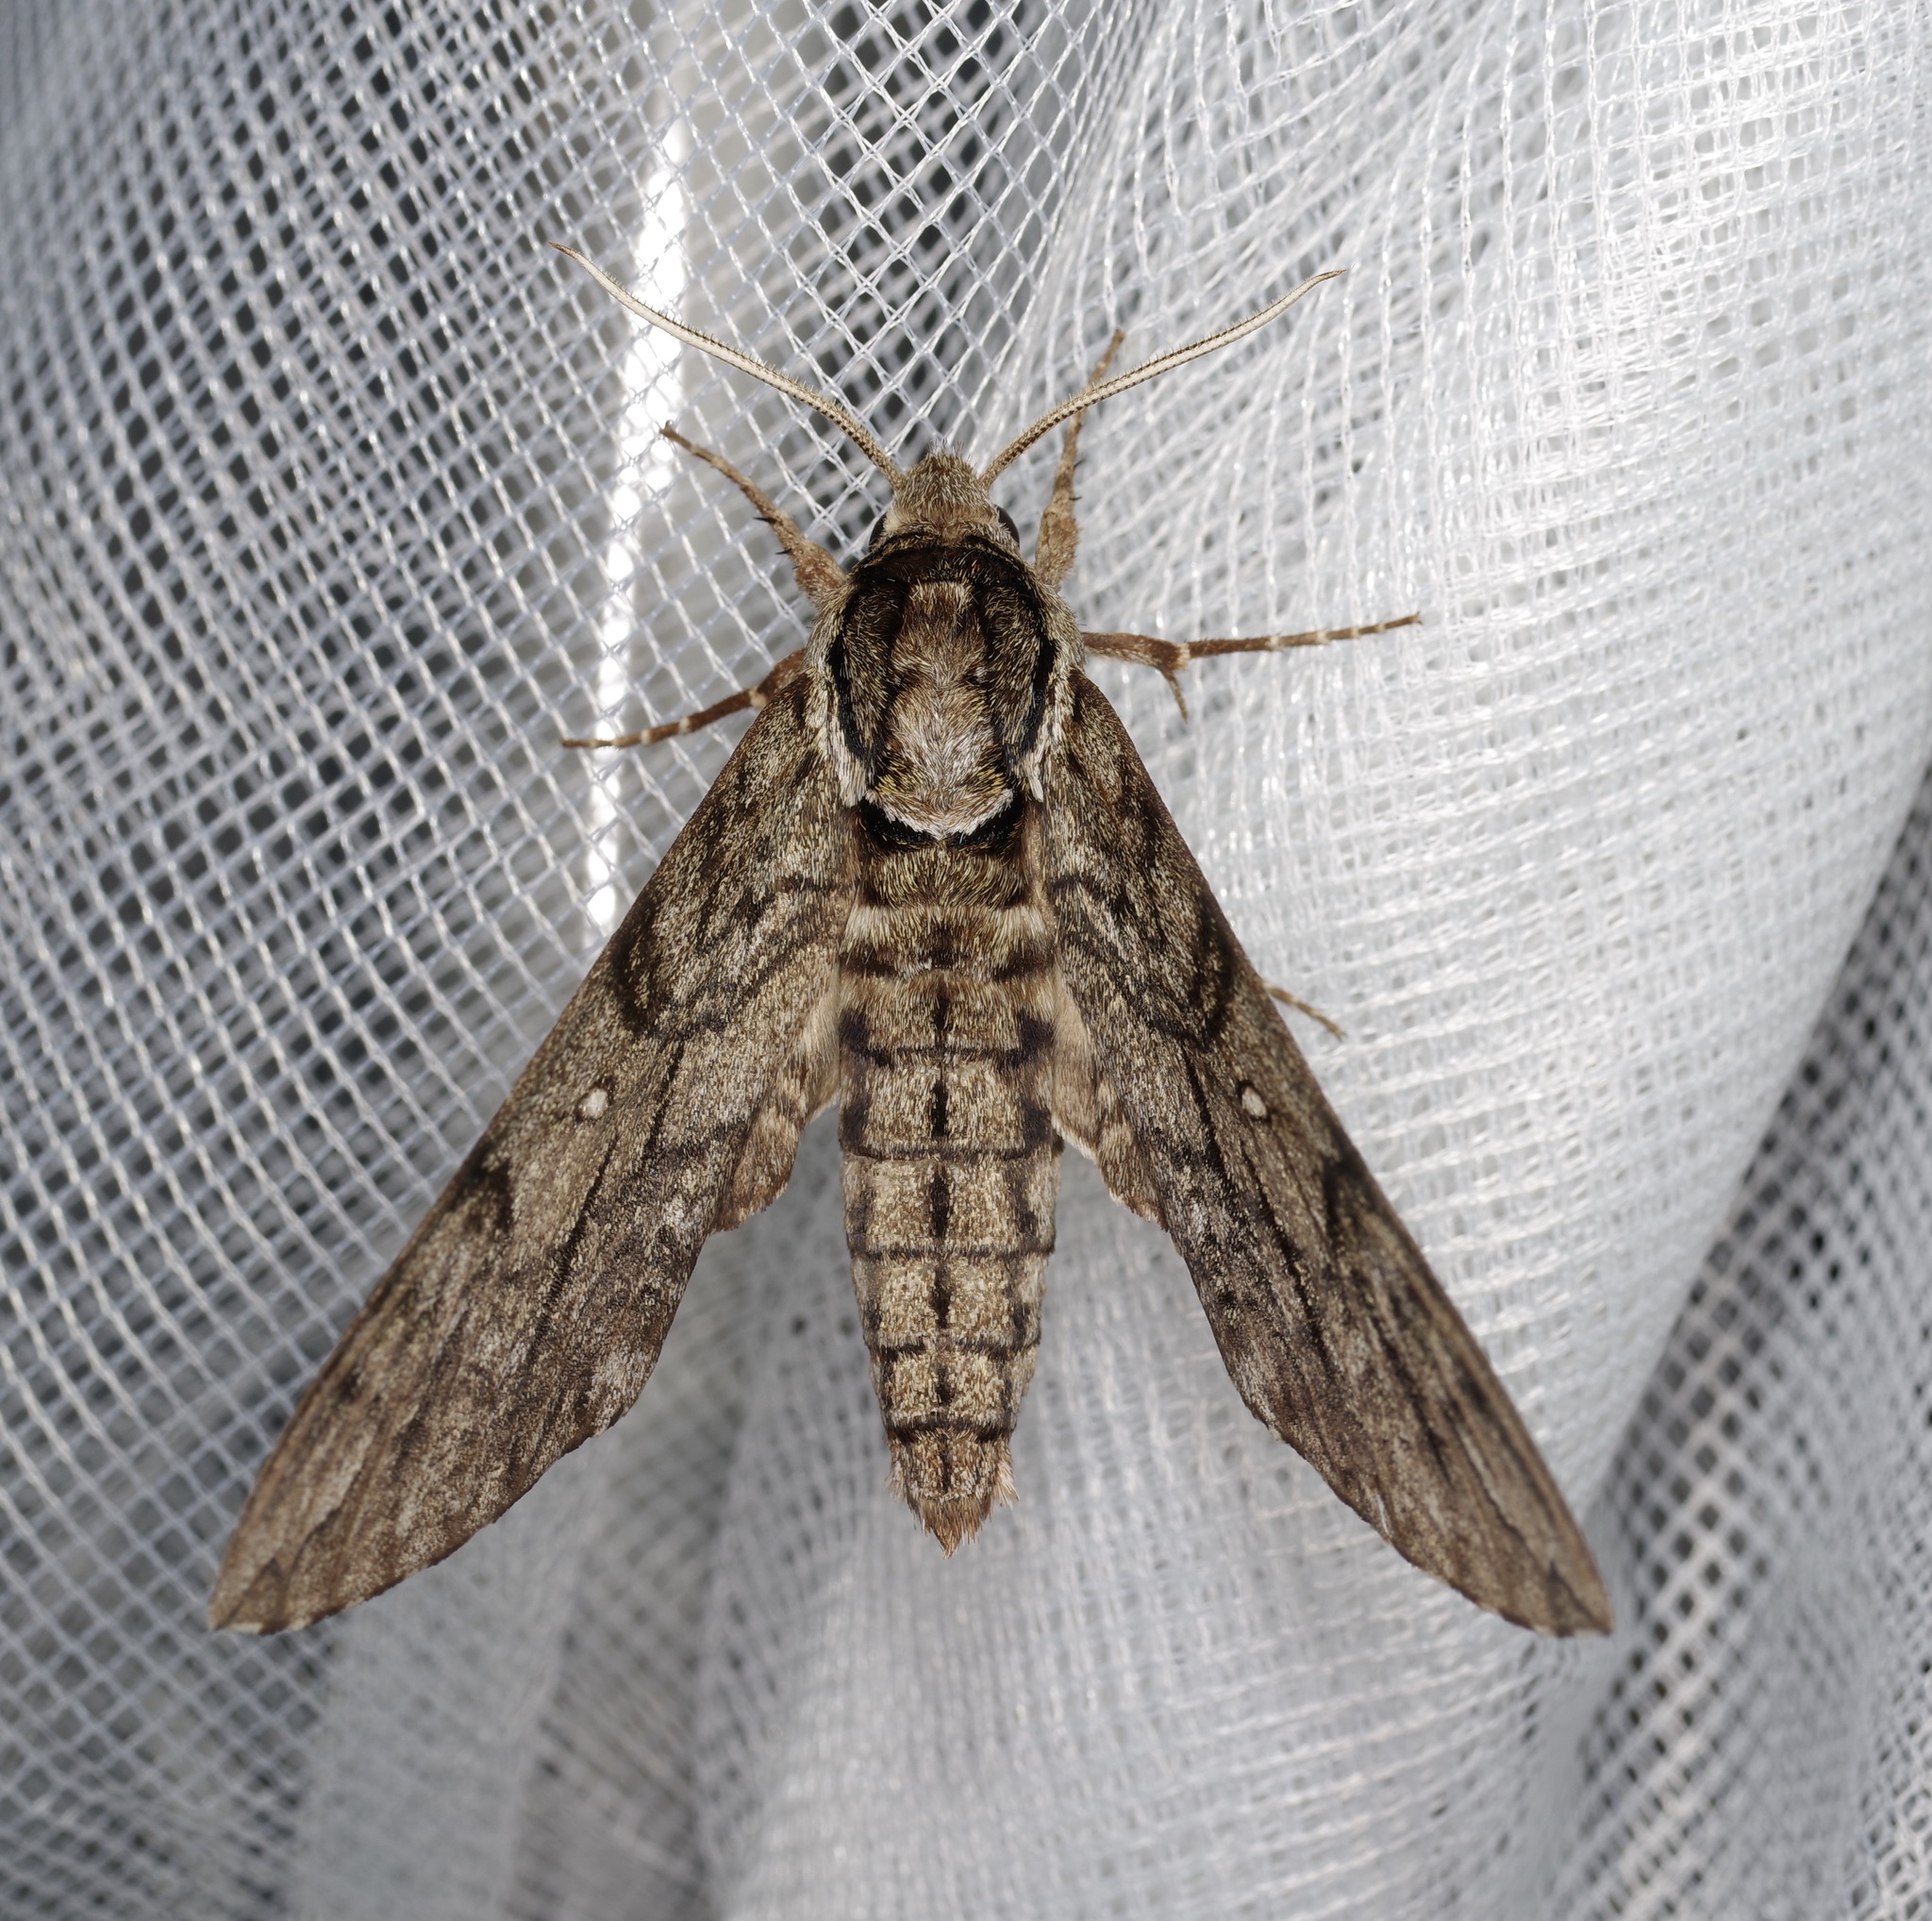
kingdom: Animalia
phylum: Arthropoda
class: Insecta
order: Lepidoptera
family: Sphingidae
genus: Ceratomia
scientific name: Ceratomia undulosa
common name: Waved sphinx
